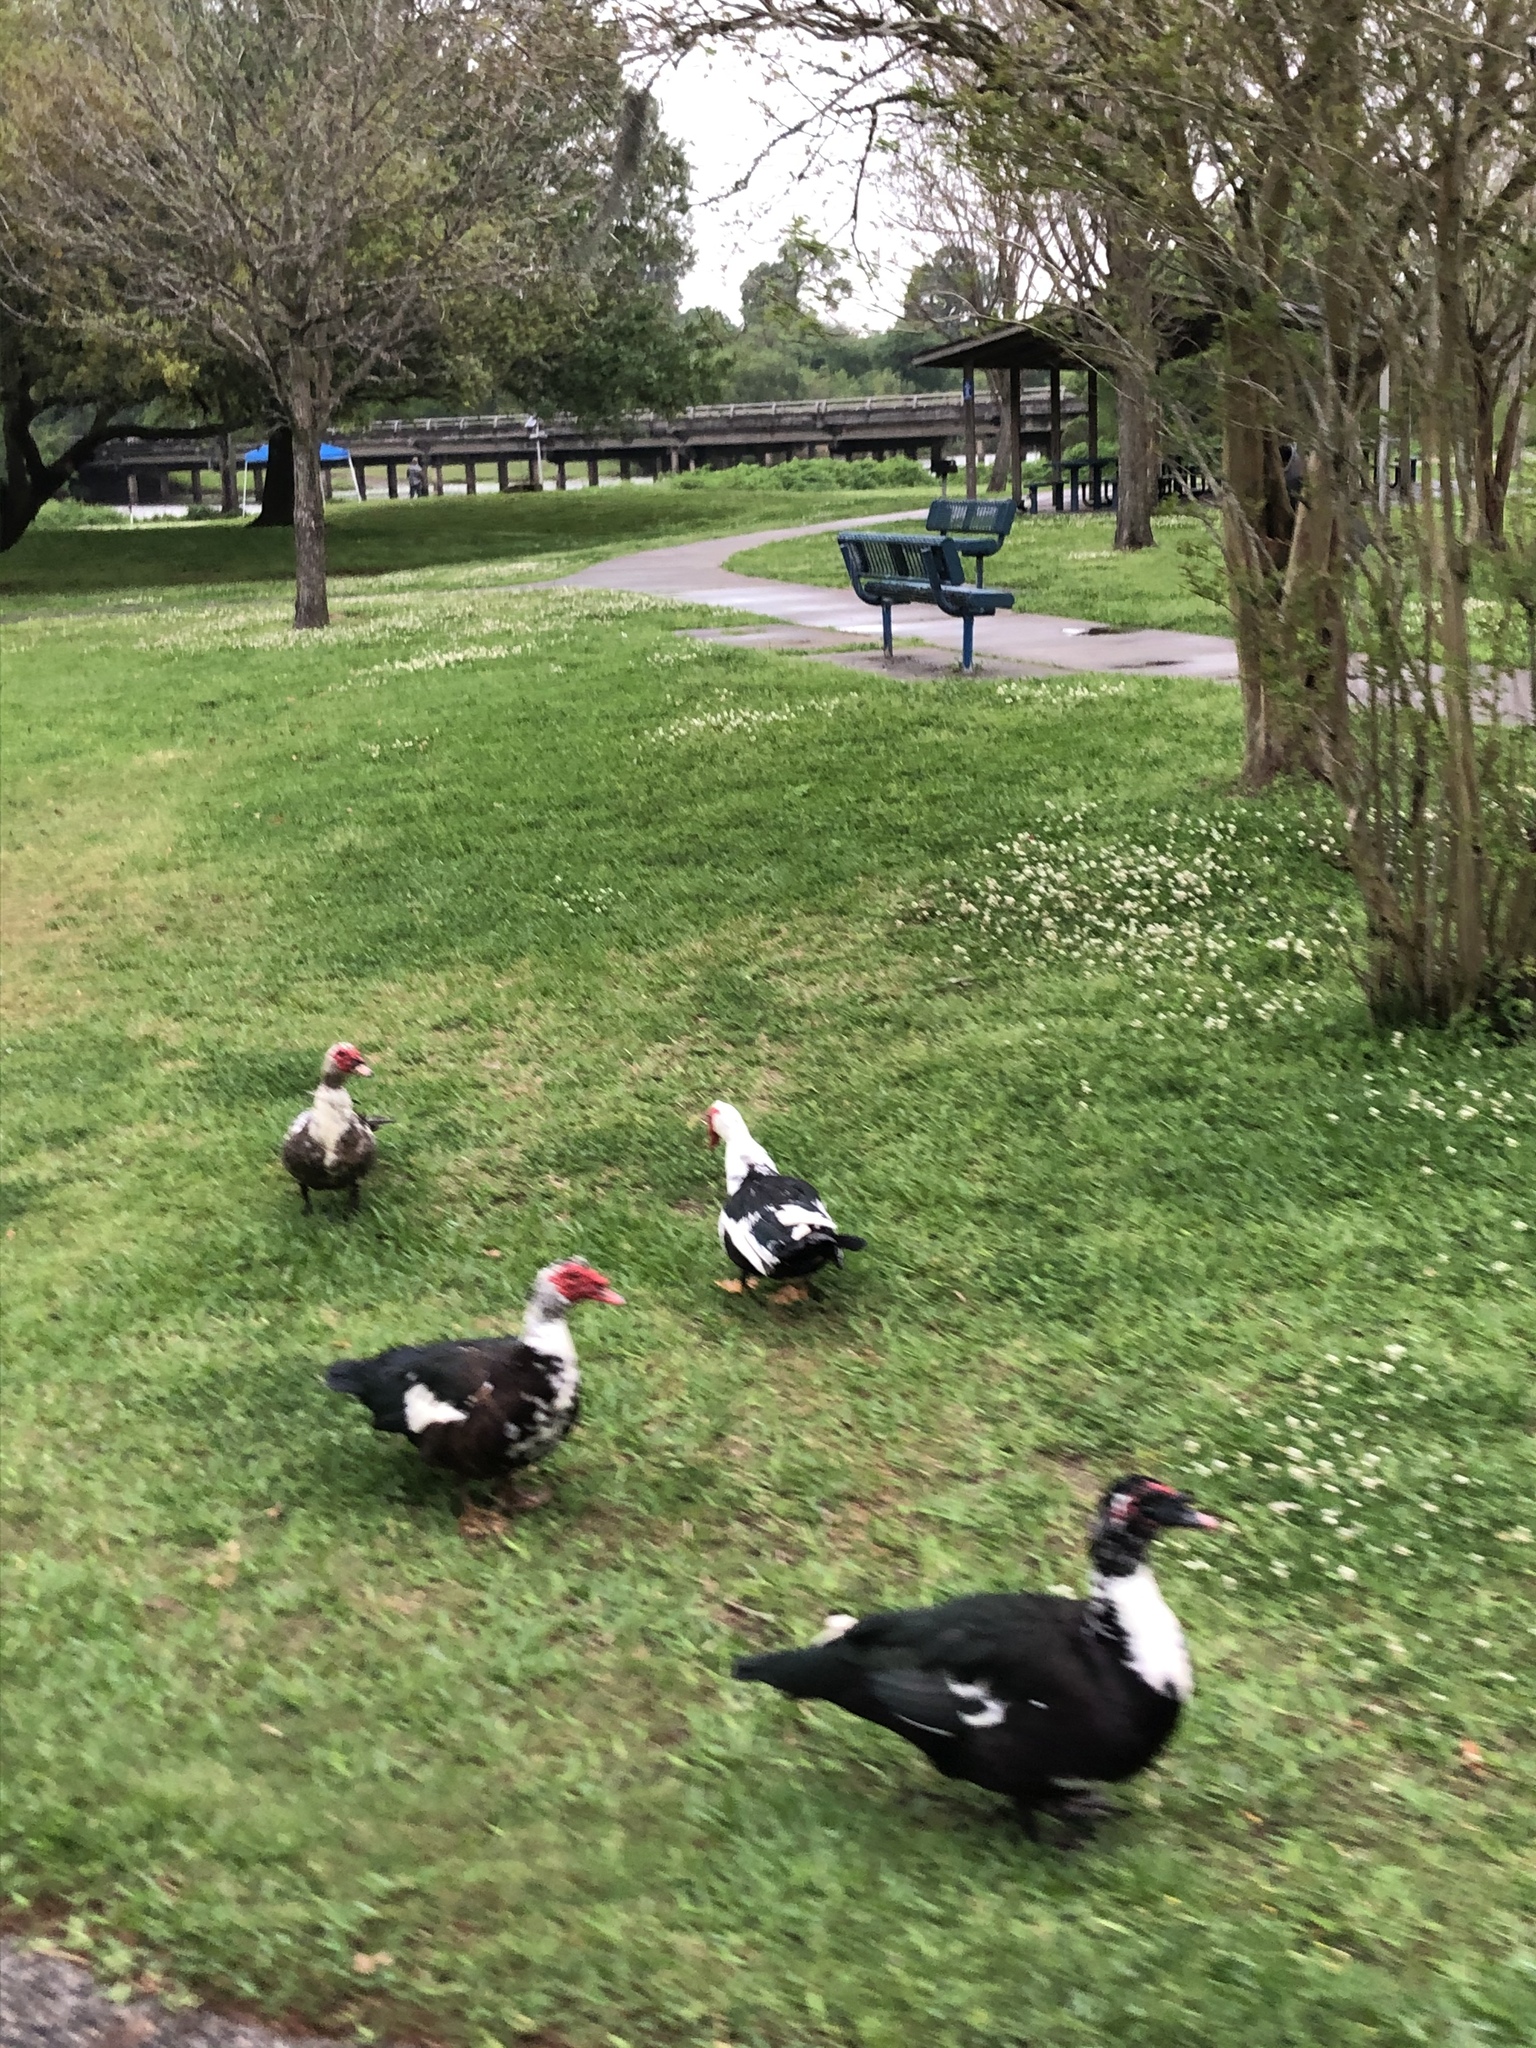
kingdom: Animalia
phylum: Chordata
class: Aves
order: Anseriformes
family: Anatidae
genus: Cairina
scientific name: Cairina moschata
